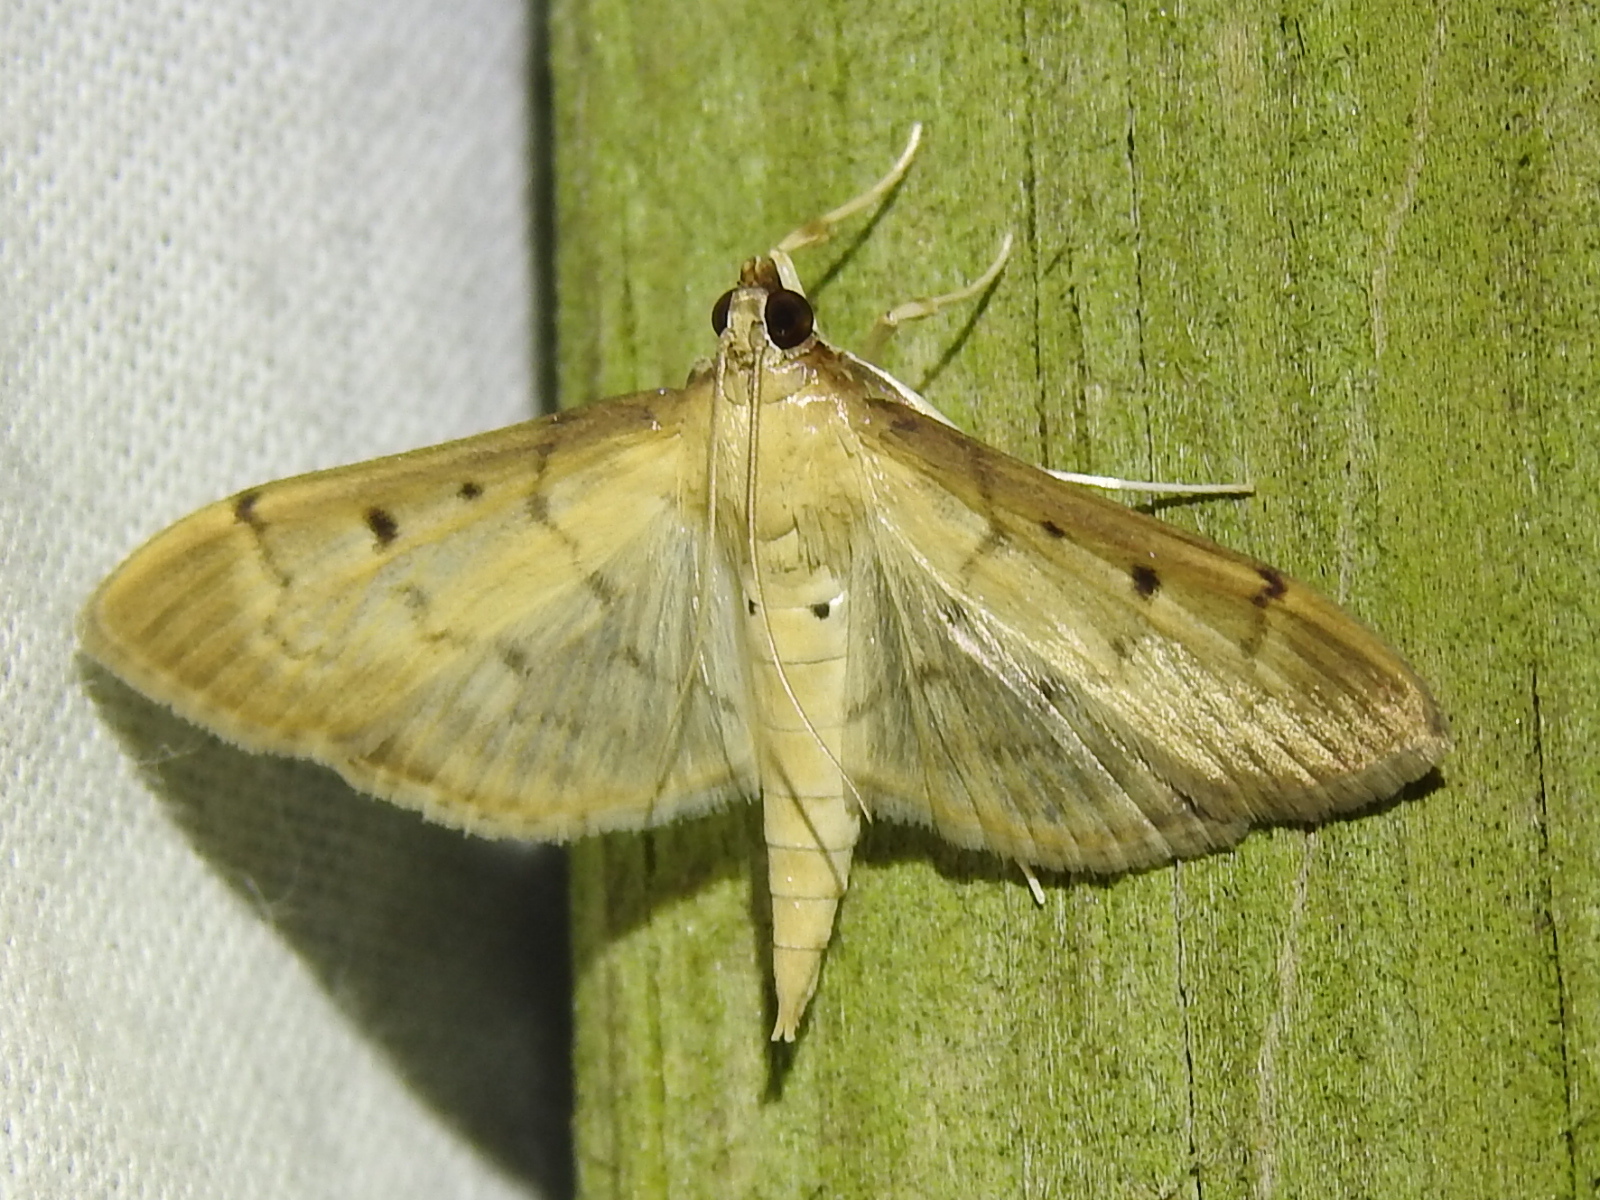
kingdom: Animalia
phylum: Arthropoda
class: Insecta
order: Lepidoptera
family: Crambidae
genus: Herpetogramma
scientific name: Herpetogramma bipunctalis
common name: Southern beet webworm
